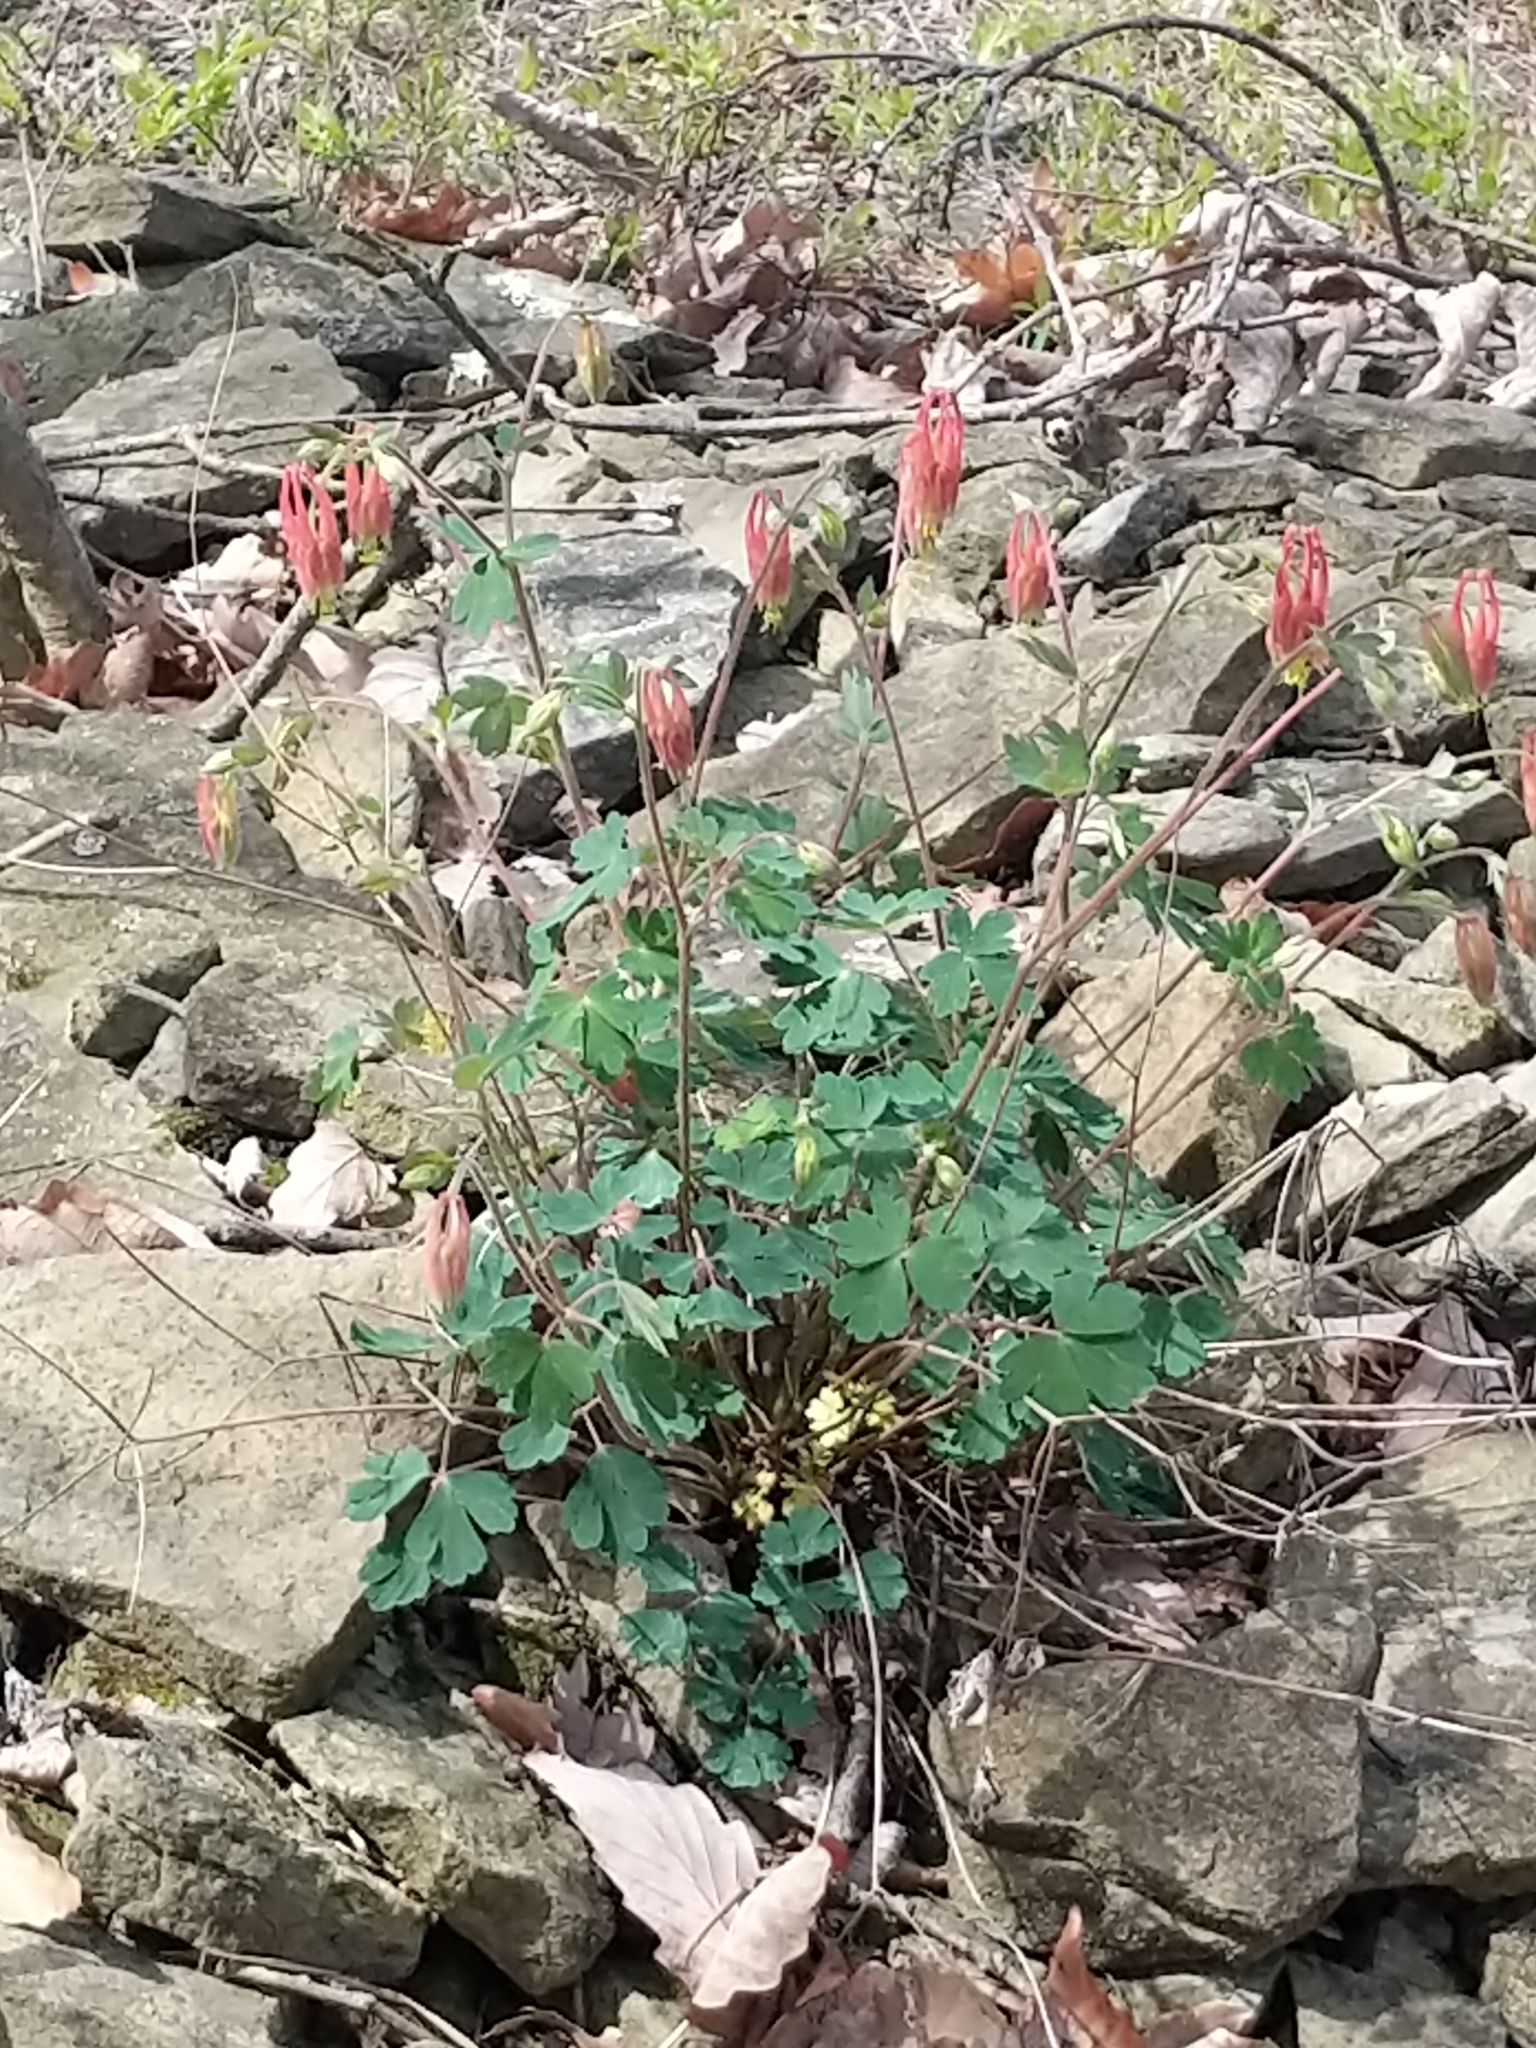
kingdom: Plantae
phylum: Tracheophyta
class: Magnoliopsida
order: Ranunculales
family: Ranunculaceae
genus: Aquilegia
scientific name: Aquilegia canadensis
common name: American columbine
